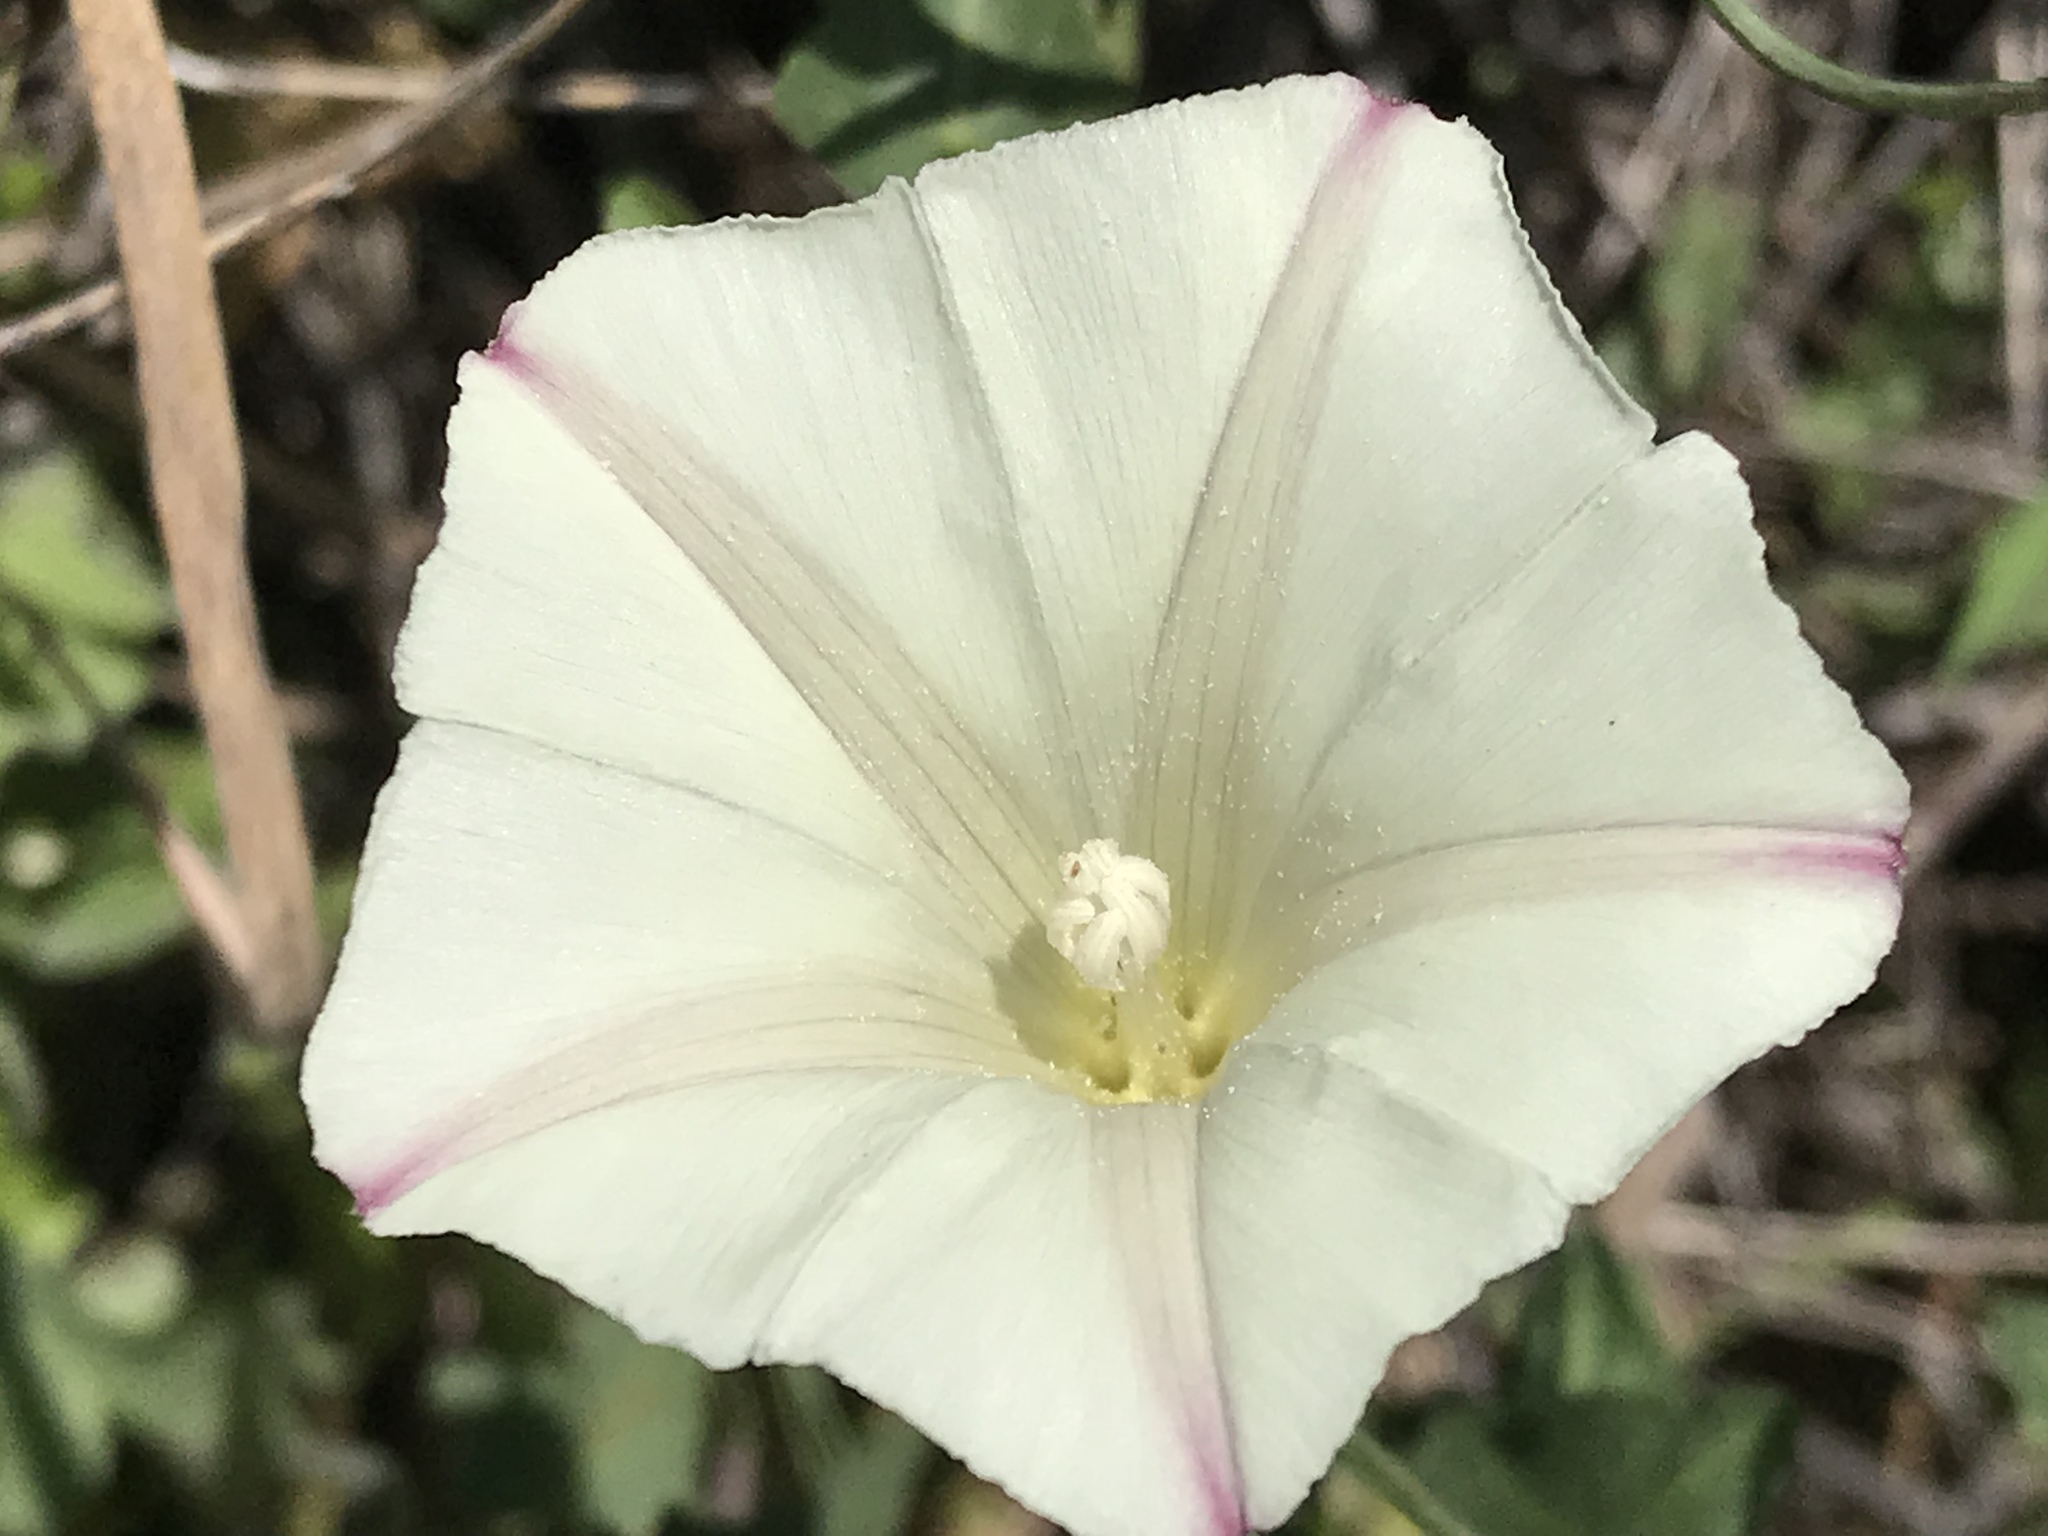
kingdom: Plantae
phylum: Tracheophyta
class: Magnoliopsida
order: Solanales
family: Convolvulaceae
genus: Calystegia
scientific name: Calystegia purpurata
